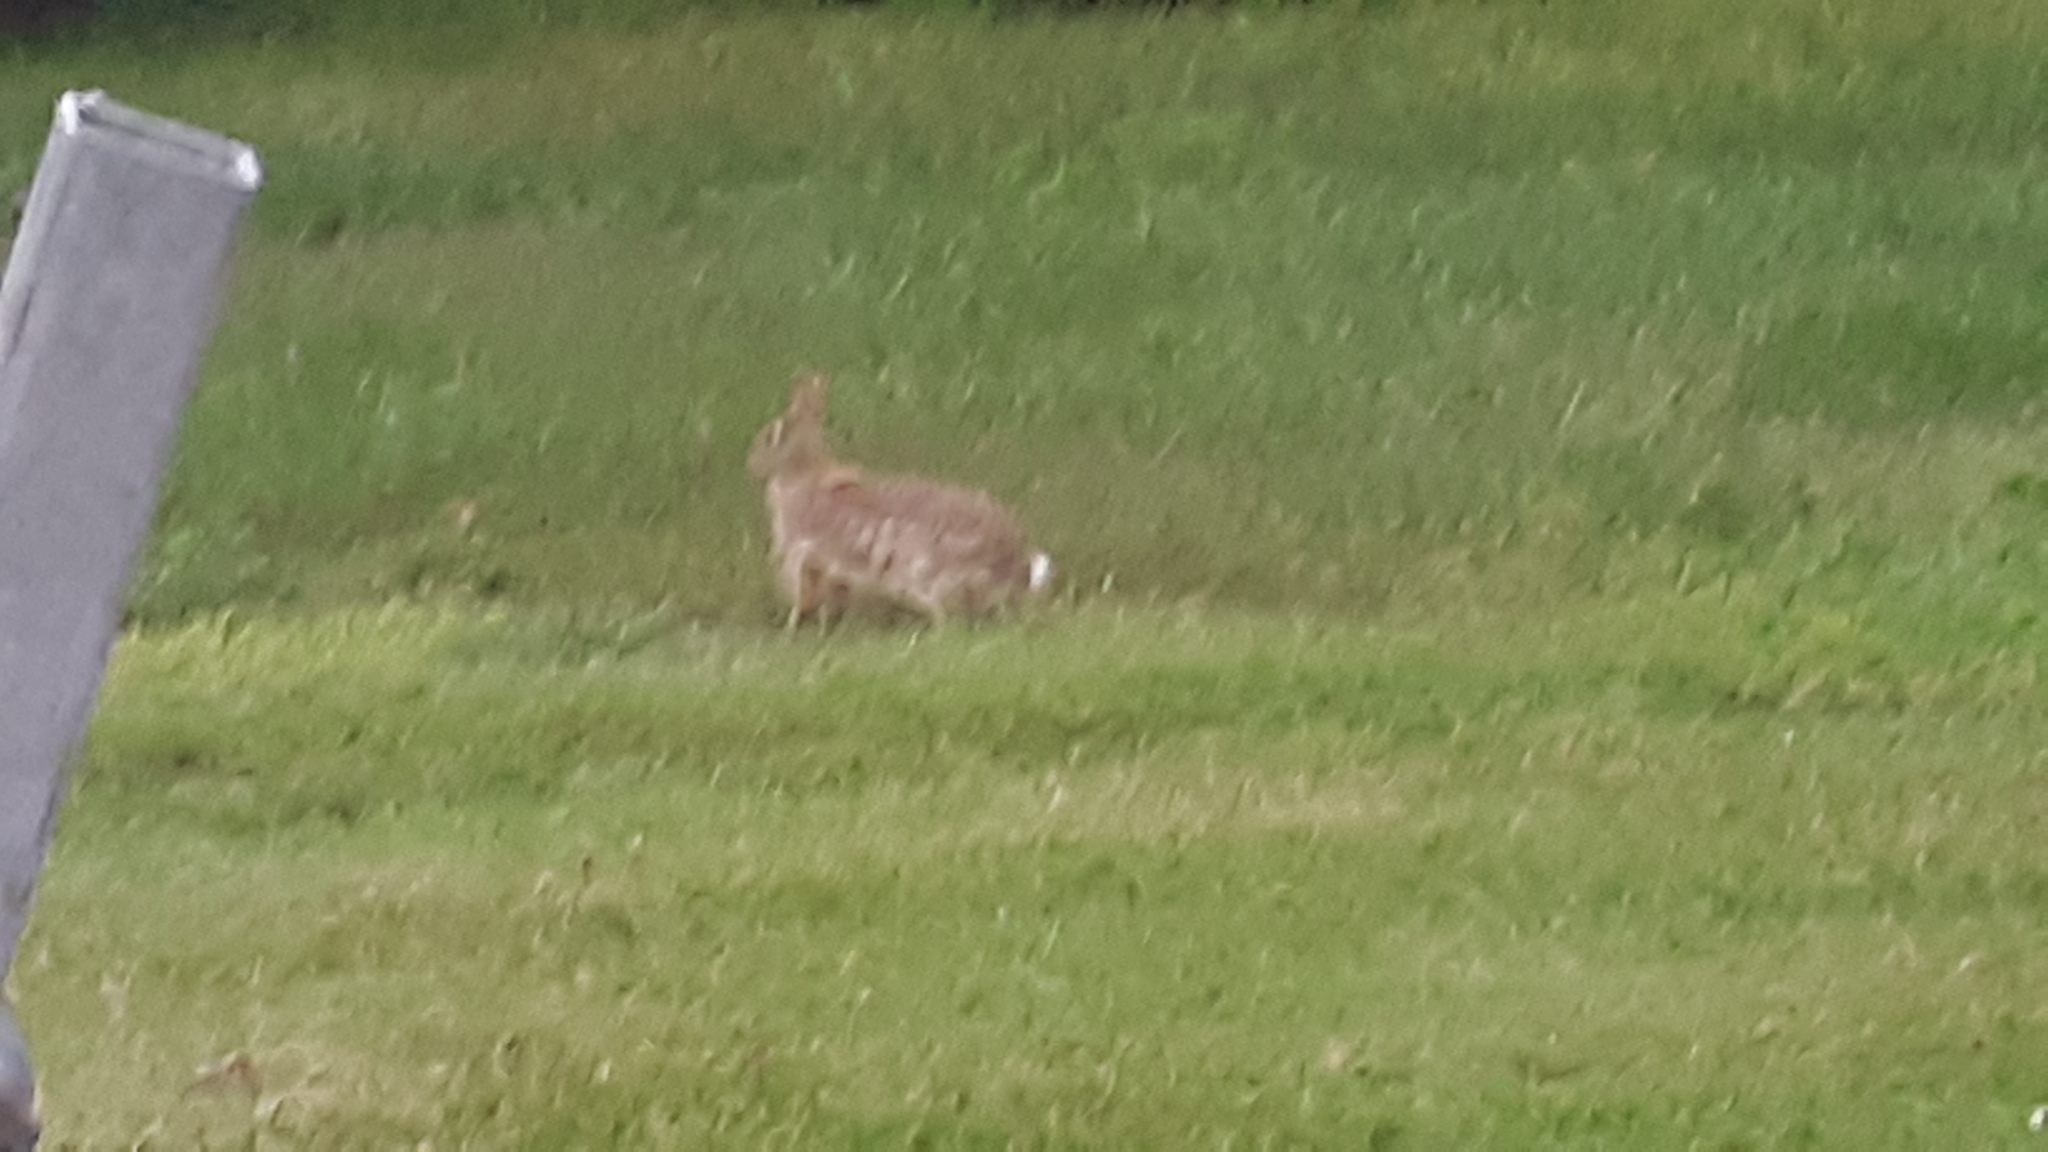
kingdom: Animalia
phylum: Chordata
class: Mammalia
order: Lagomorpha
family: Leporidae
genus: Sylvilagus
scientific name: Sylvilagus floridanus
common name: Eastern cottontail
